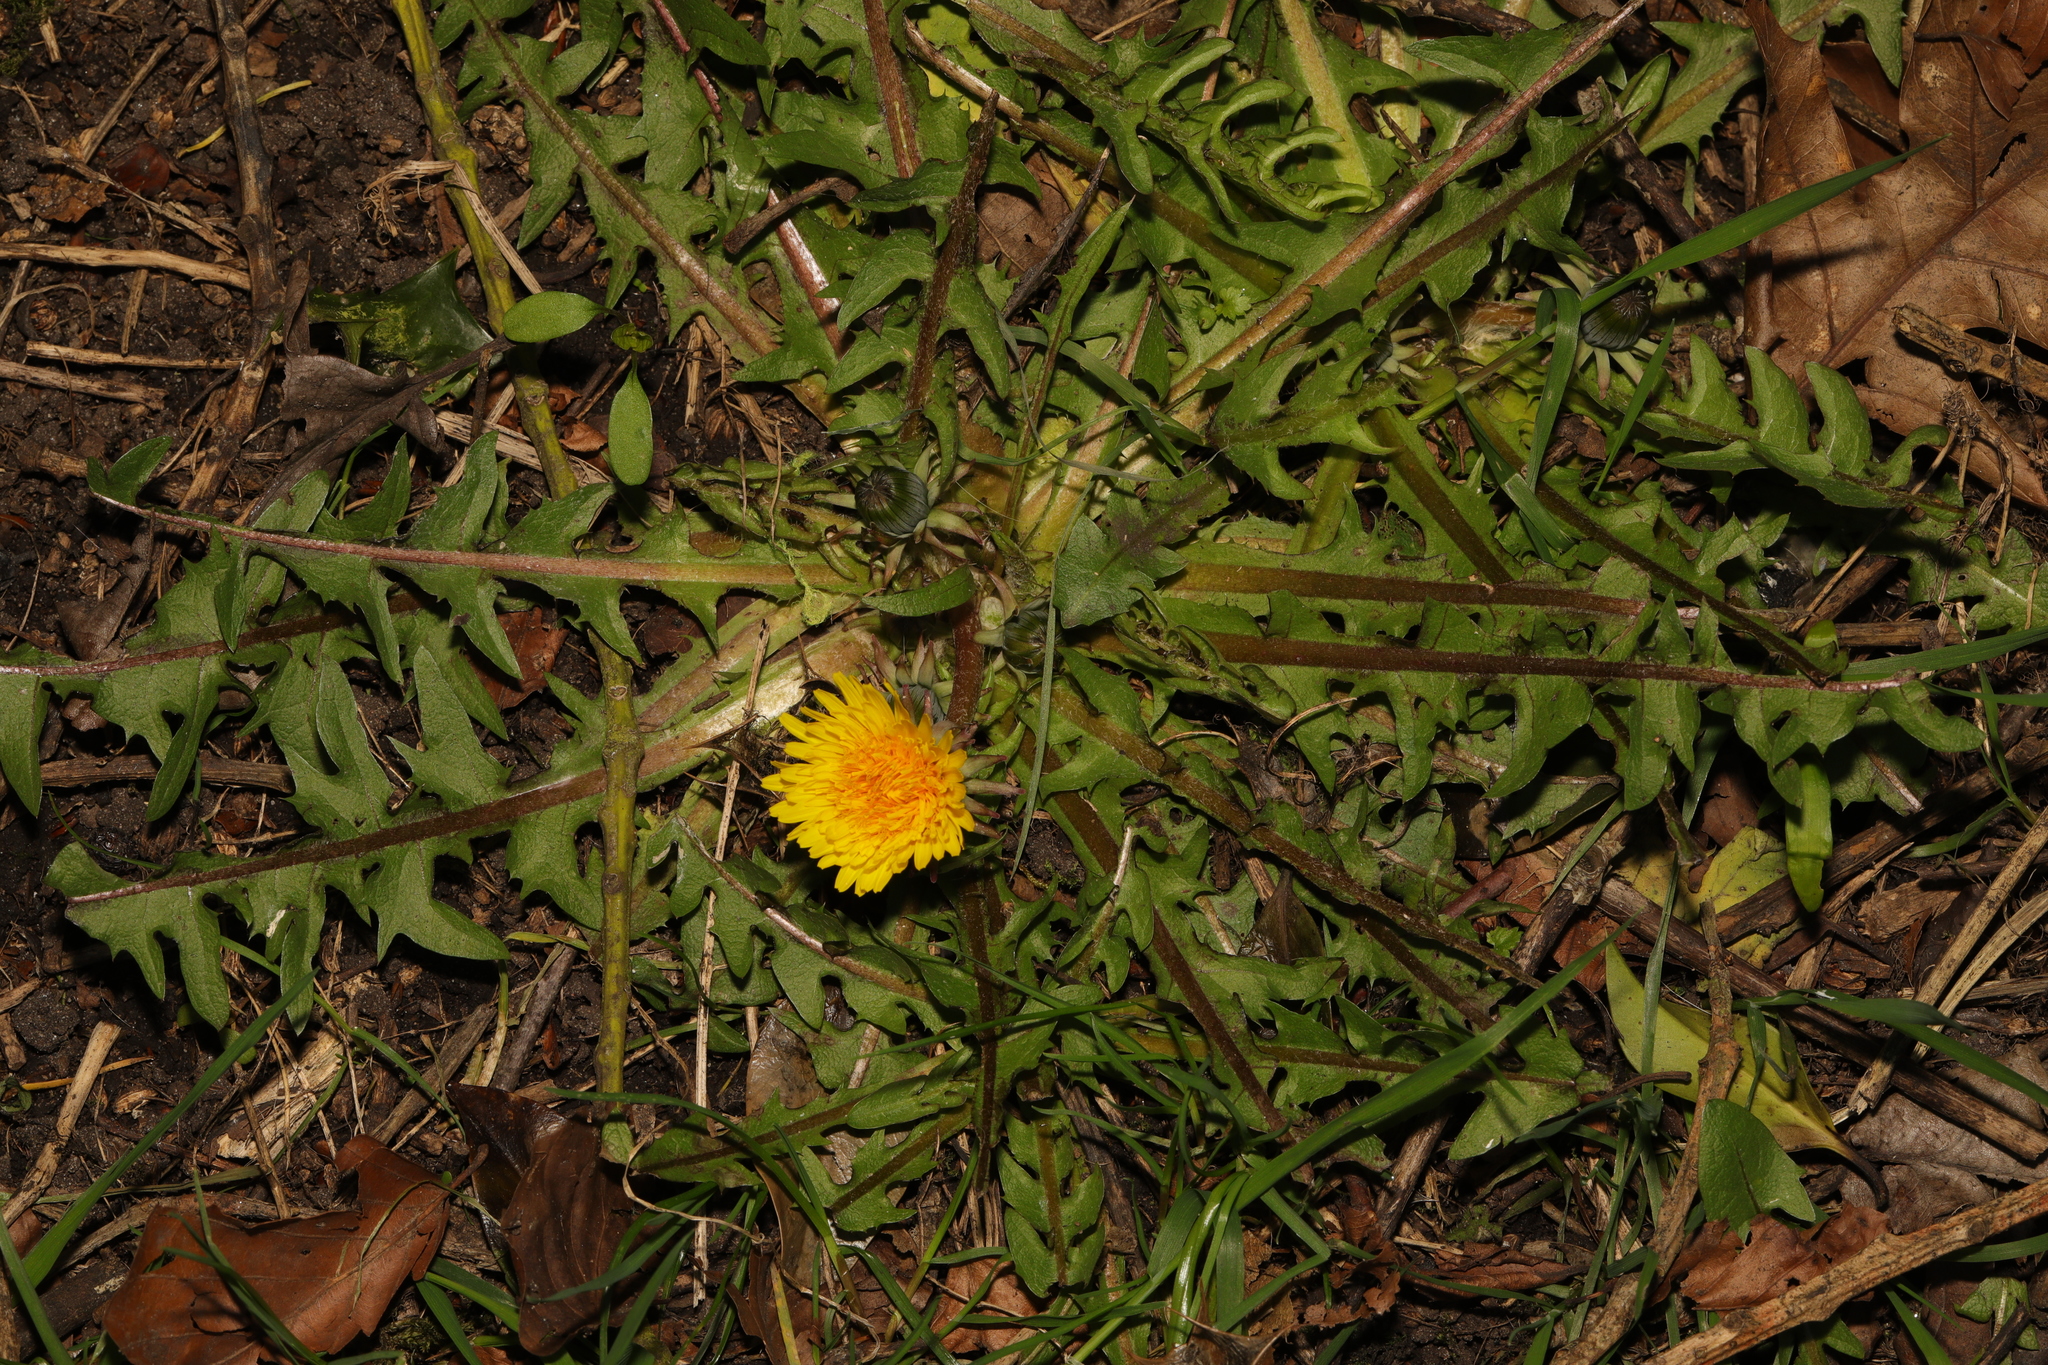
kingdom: Plantae
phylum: Tracheophyta
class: Magnoliopsida
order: Asterales
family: Asteraceae
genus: Taraxacum
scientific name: Taraxacum officinale
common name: Common dandelion
